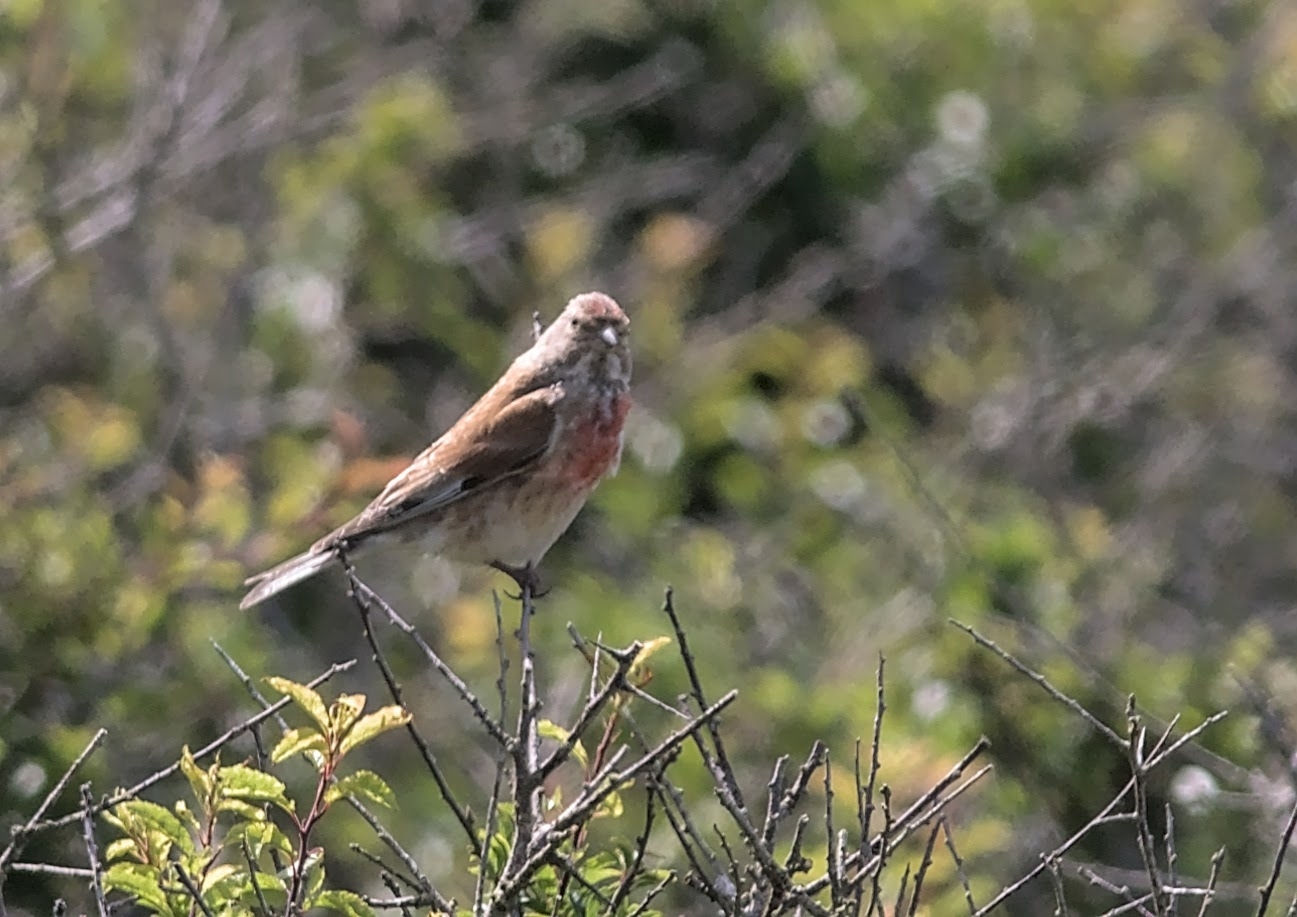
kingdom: Animalia
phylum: Chordata
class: Aves
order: Passeriformes
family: Fringillidae
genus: Linaria
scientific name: Linaria cannabina
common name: Common linnet
